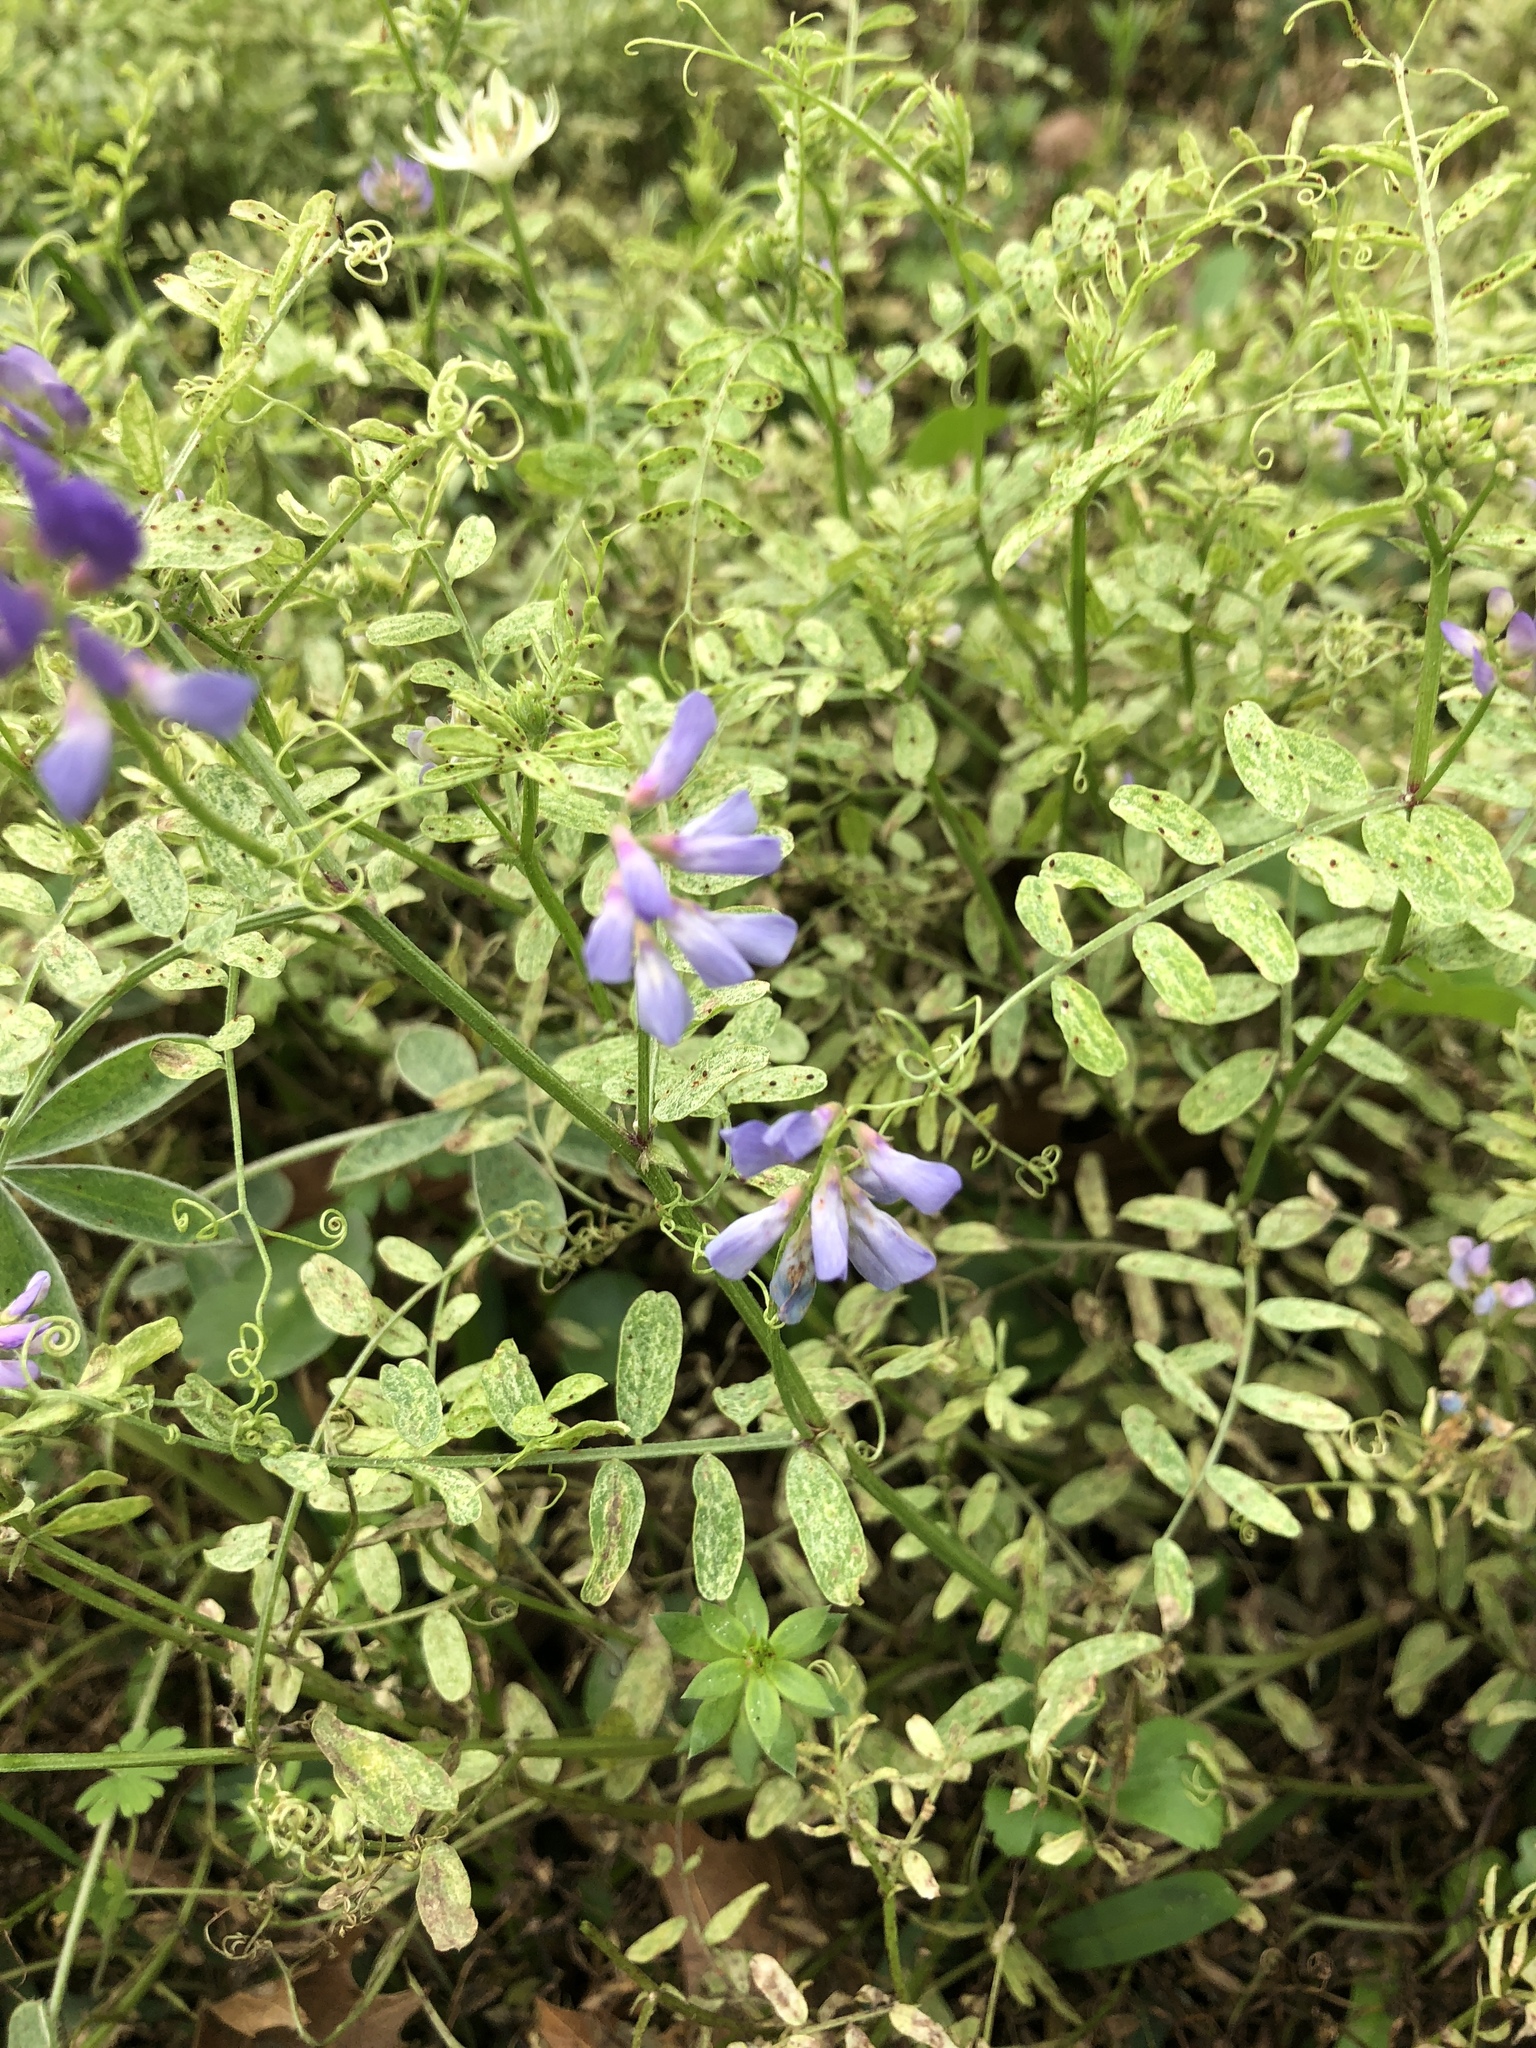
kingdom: Plantae
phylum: Tracheophyta
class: Magnoliopsida
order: Fabales
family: Fabaceae
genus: Vicia
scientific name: Vicia ludoviciana
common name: Louisiana vetch
